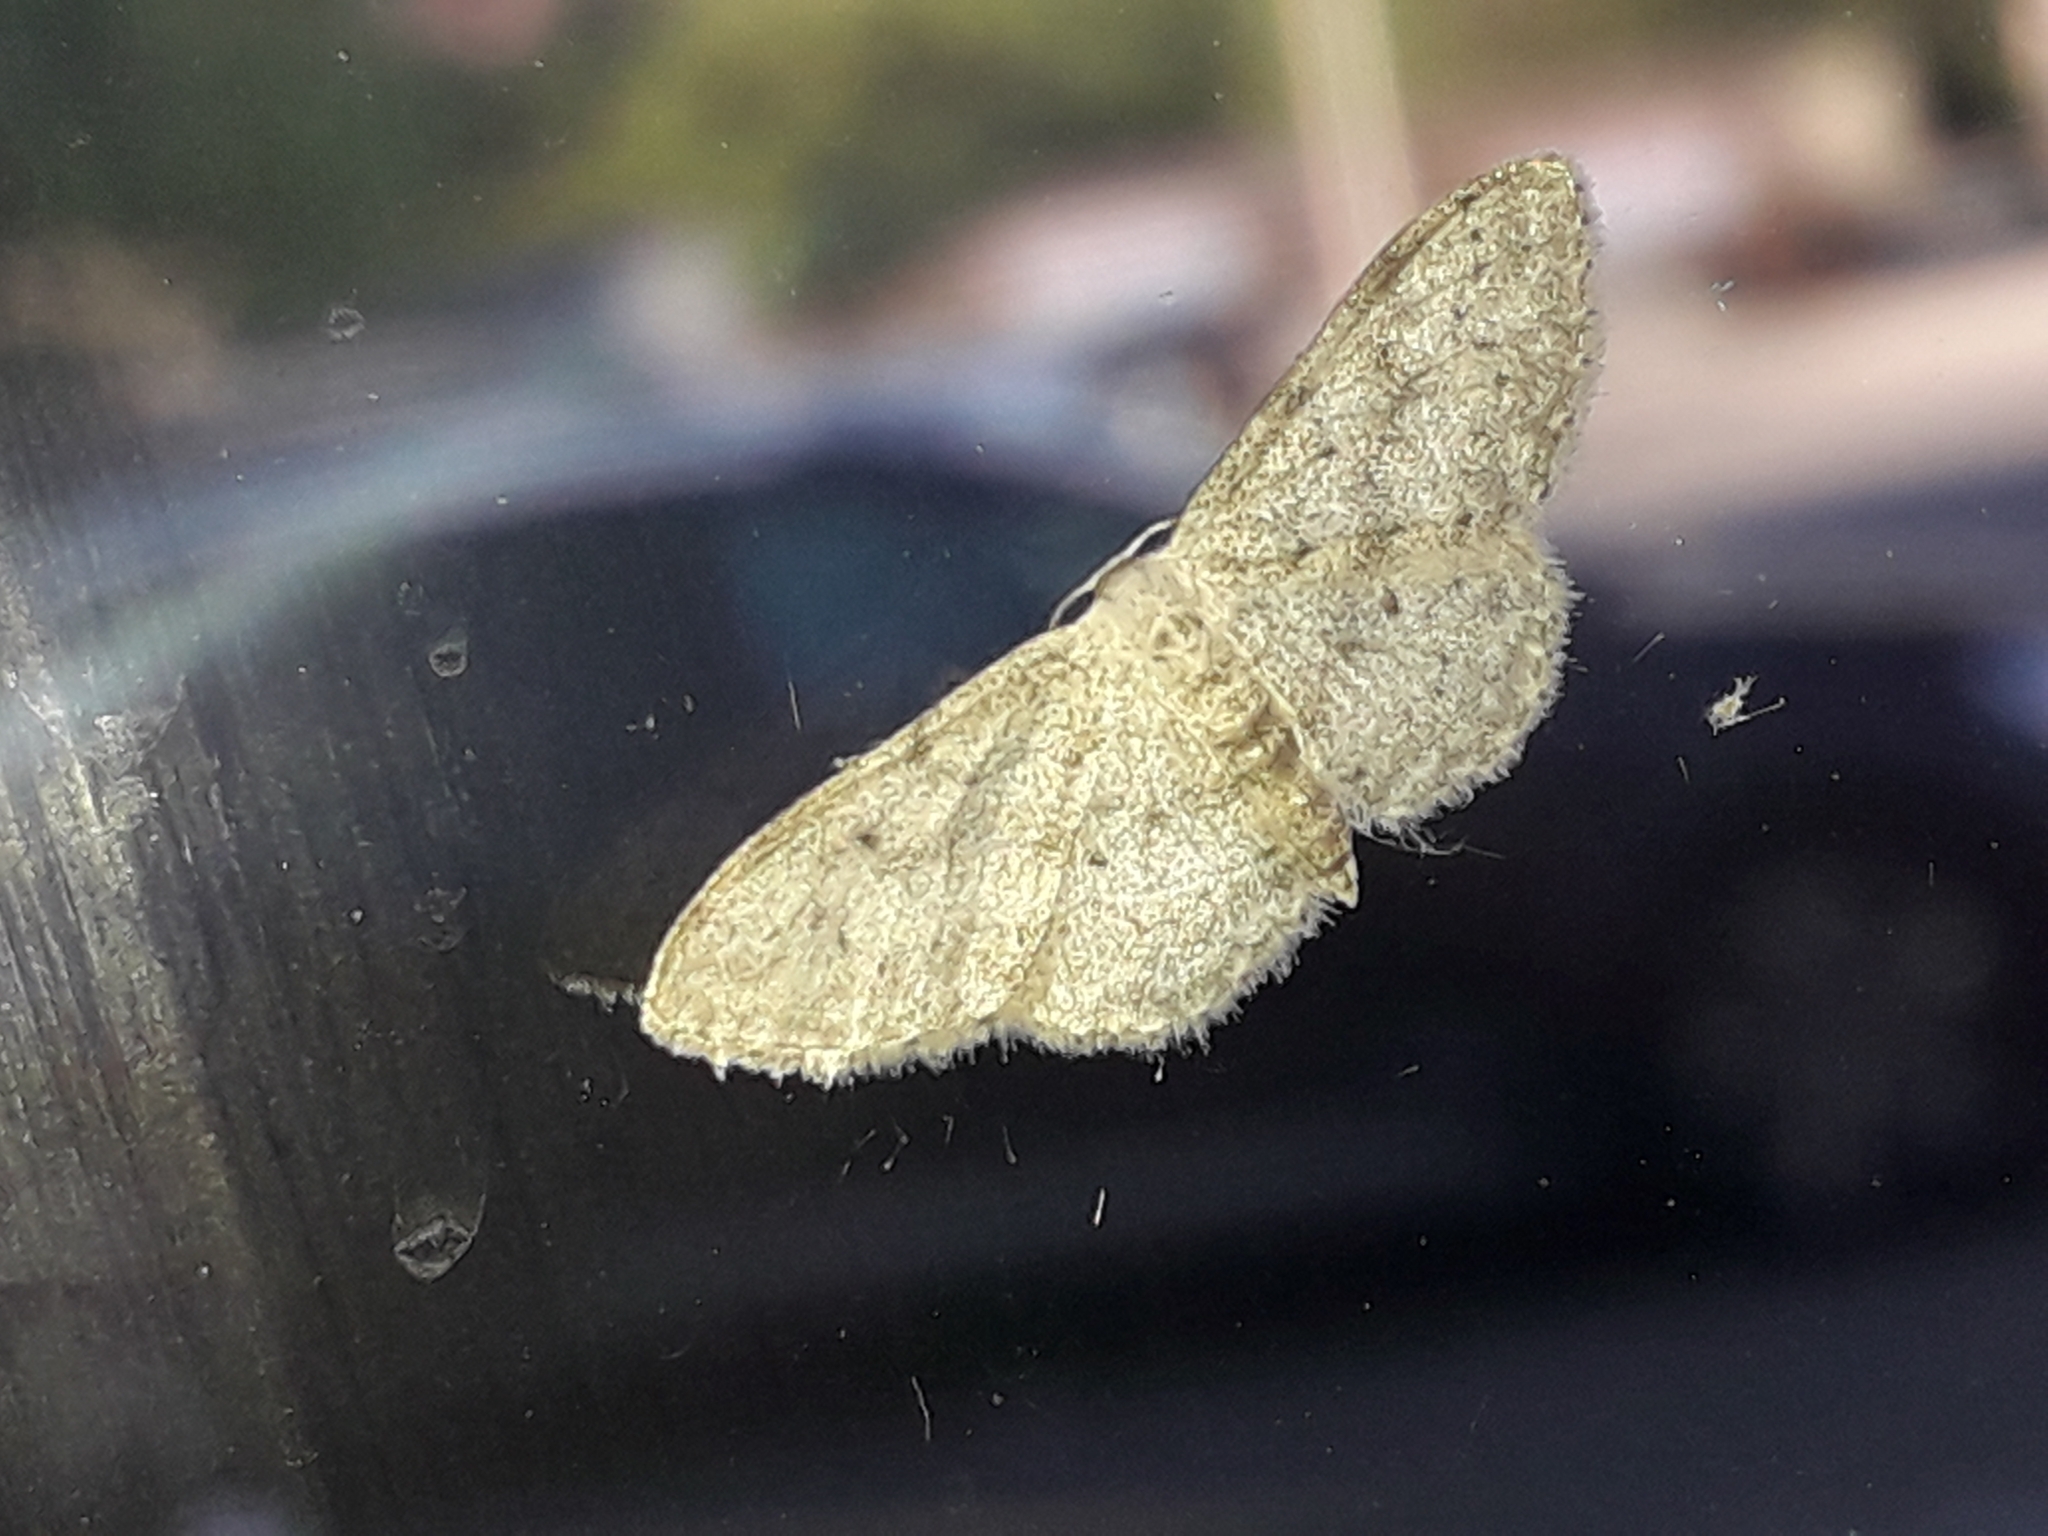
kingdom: Animalia
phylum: Arthropoda
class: Insecta
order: Lepidoptera
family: Geometridae
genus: Idaea
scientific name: Idaea seriata
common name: Small dusty wave
